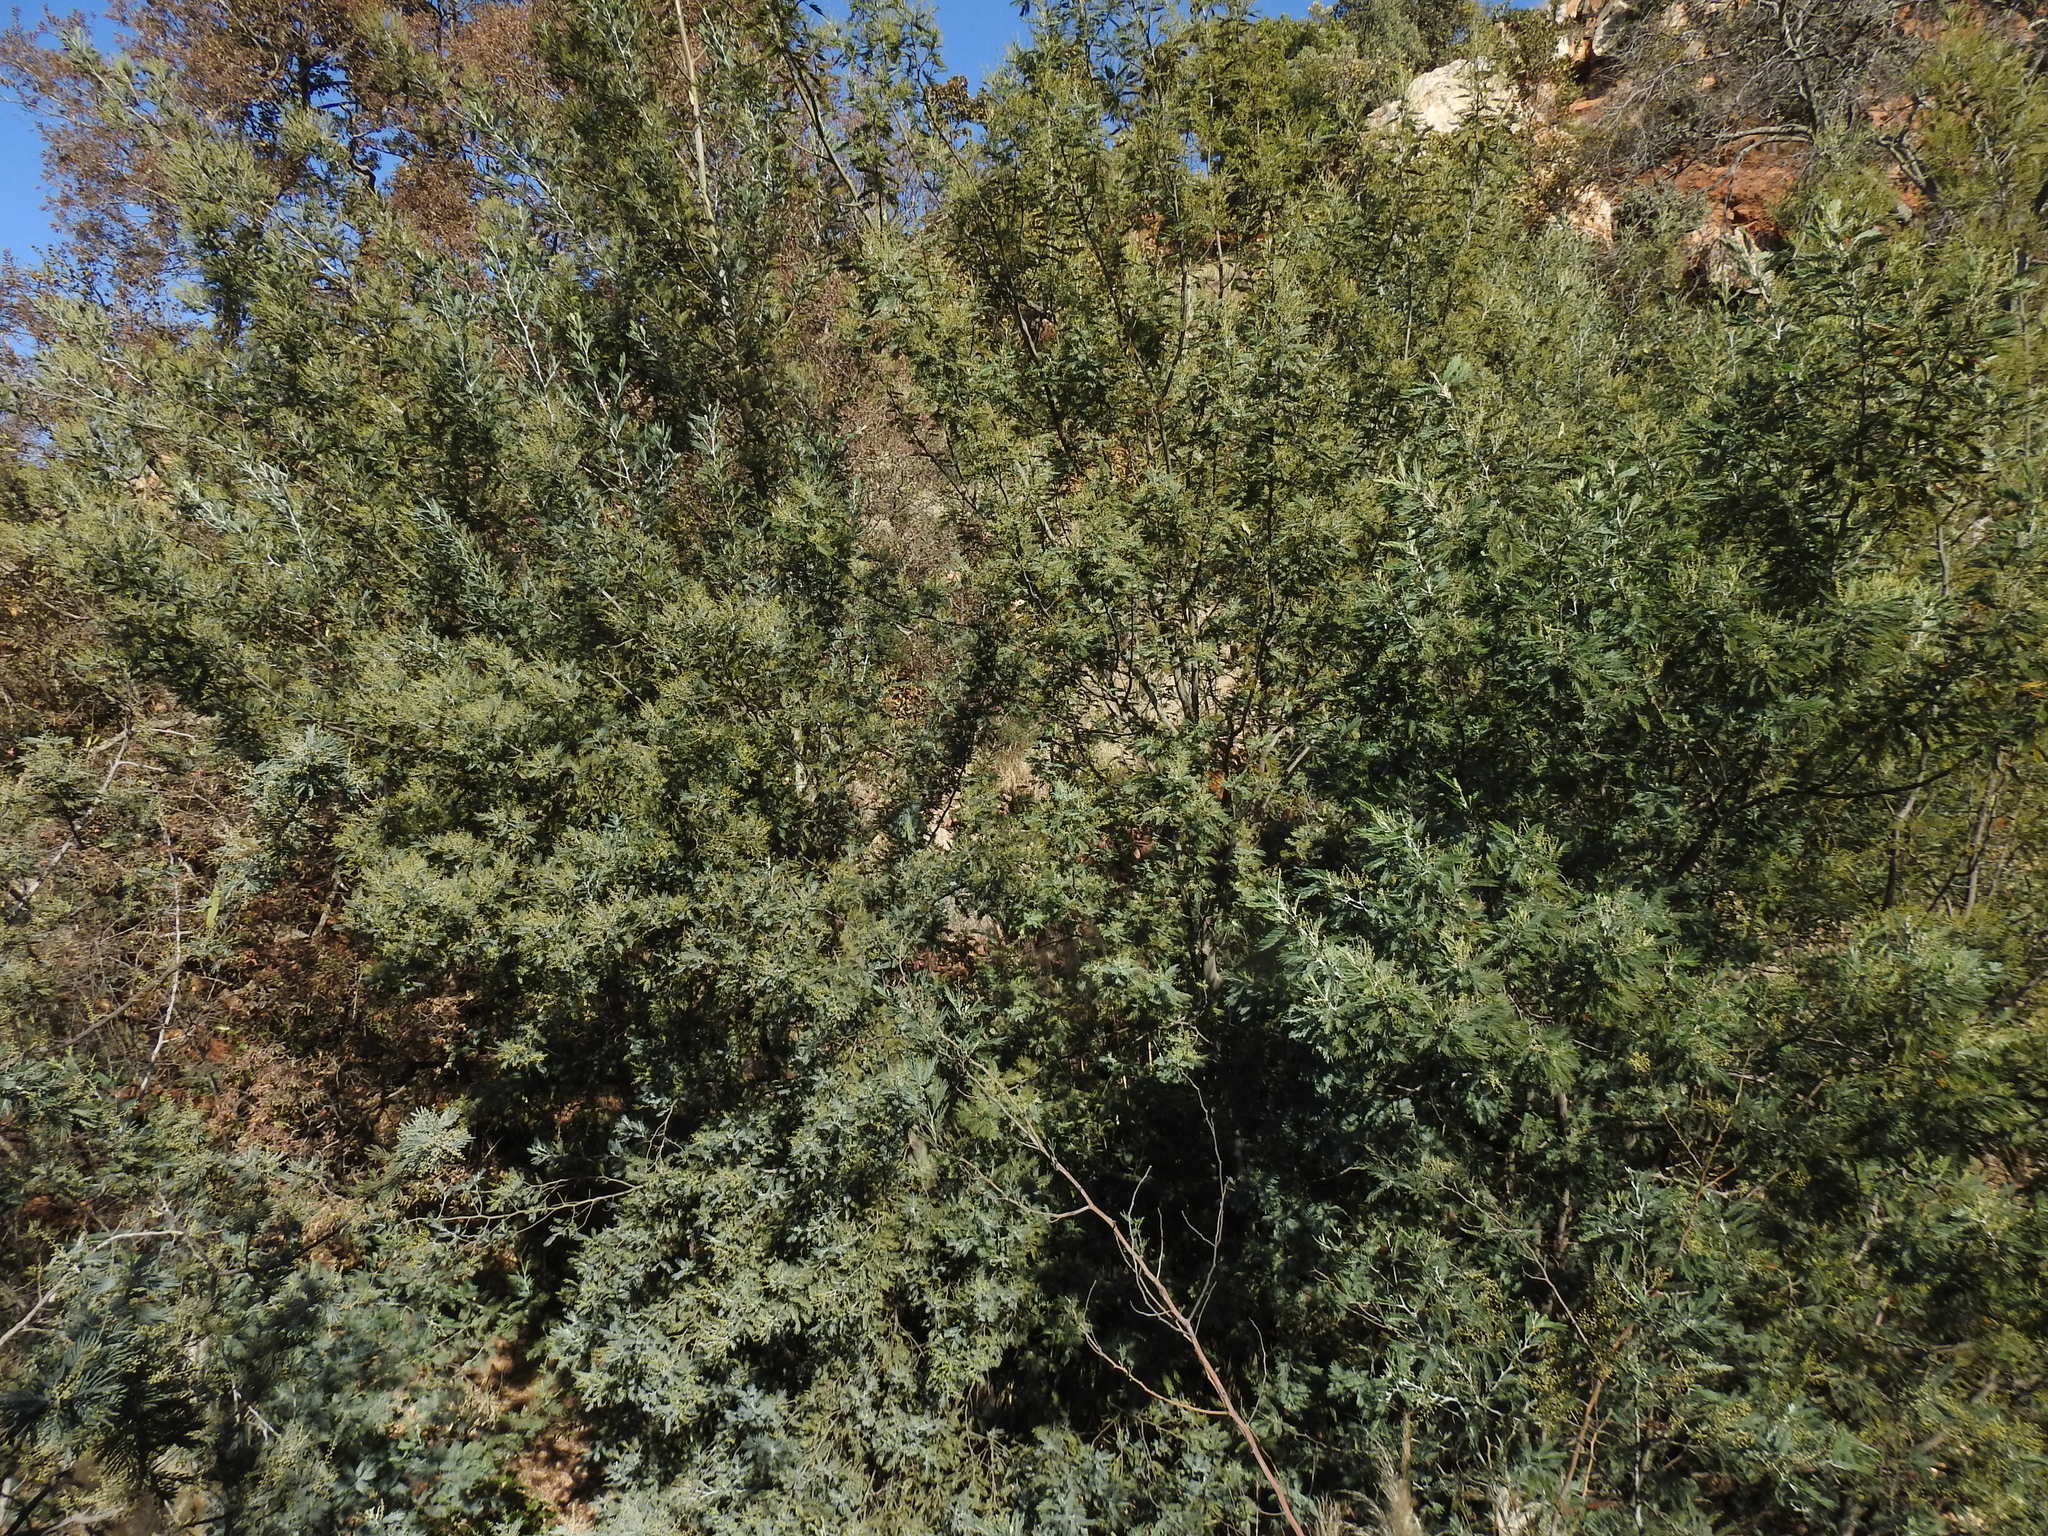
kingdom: Plantae
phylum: Tracheophyta
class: Magnoliopsida
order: Fabales
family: Fabaceae
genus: Acacia
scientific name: Acacia dealbata
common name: Silver wattle
